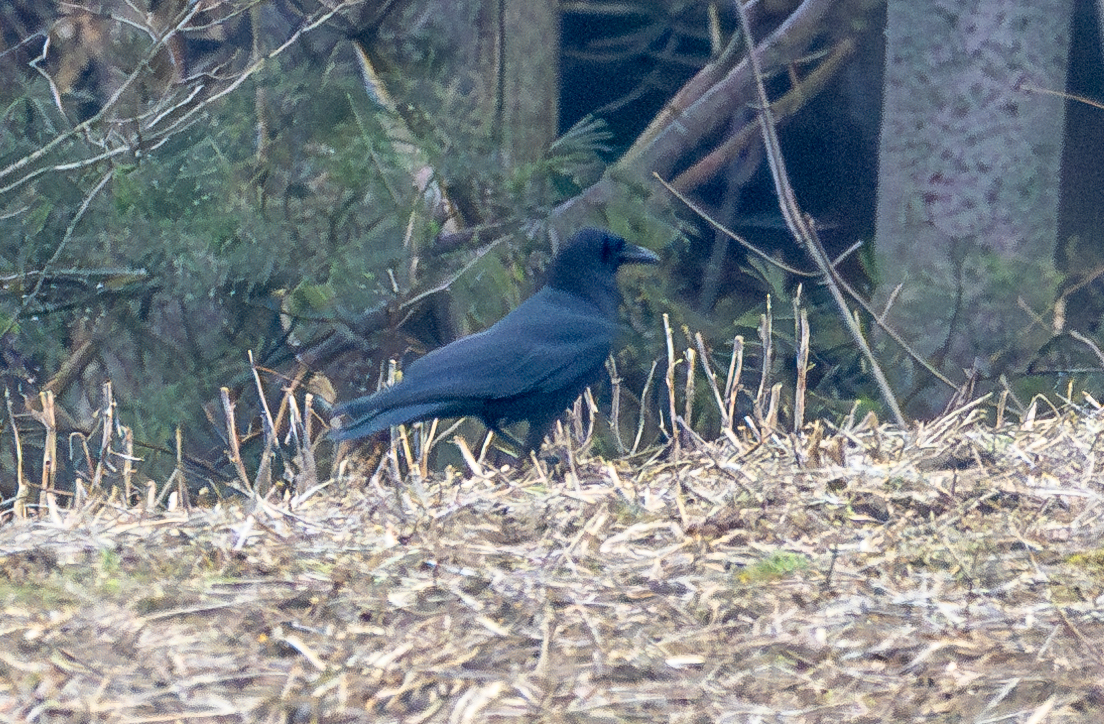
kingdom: Animalia
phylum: Chordata
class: Aves
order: Passeriformes
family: Corvidae
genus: Corvus
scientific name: Corvus corax
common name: Common raven
